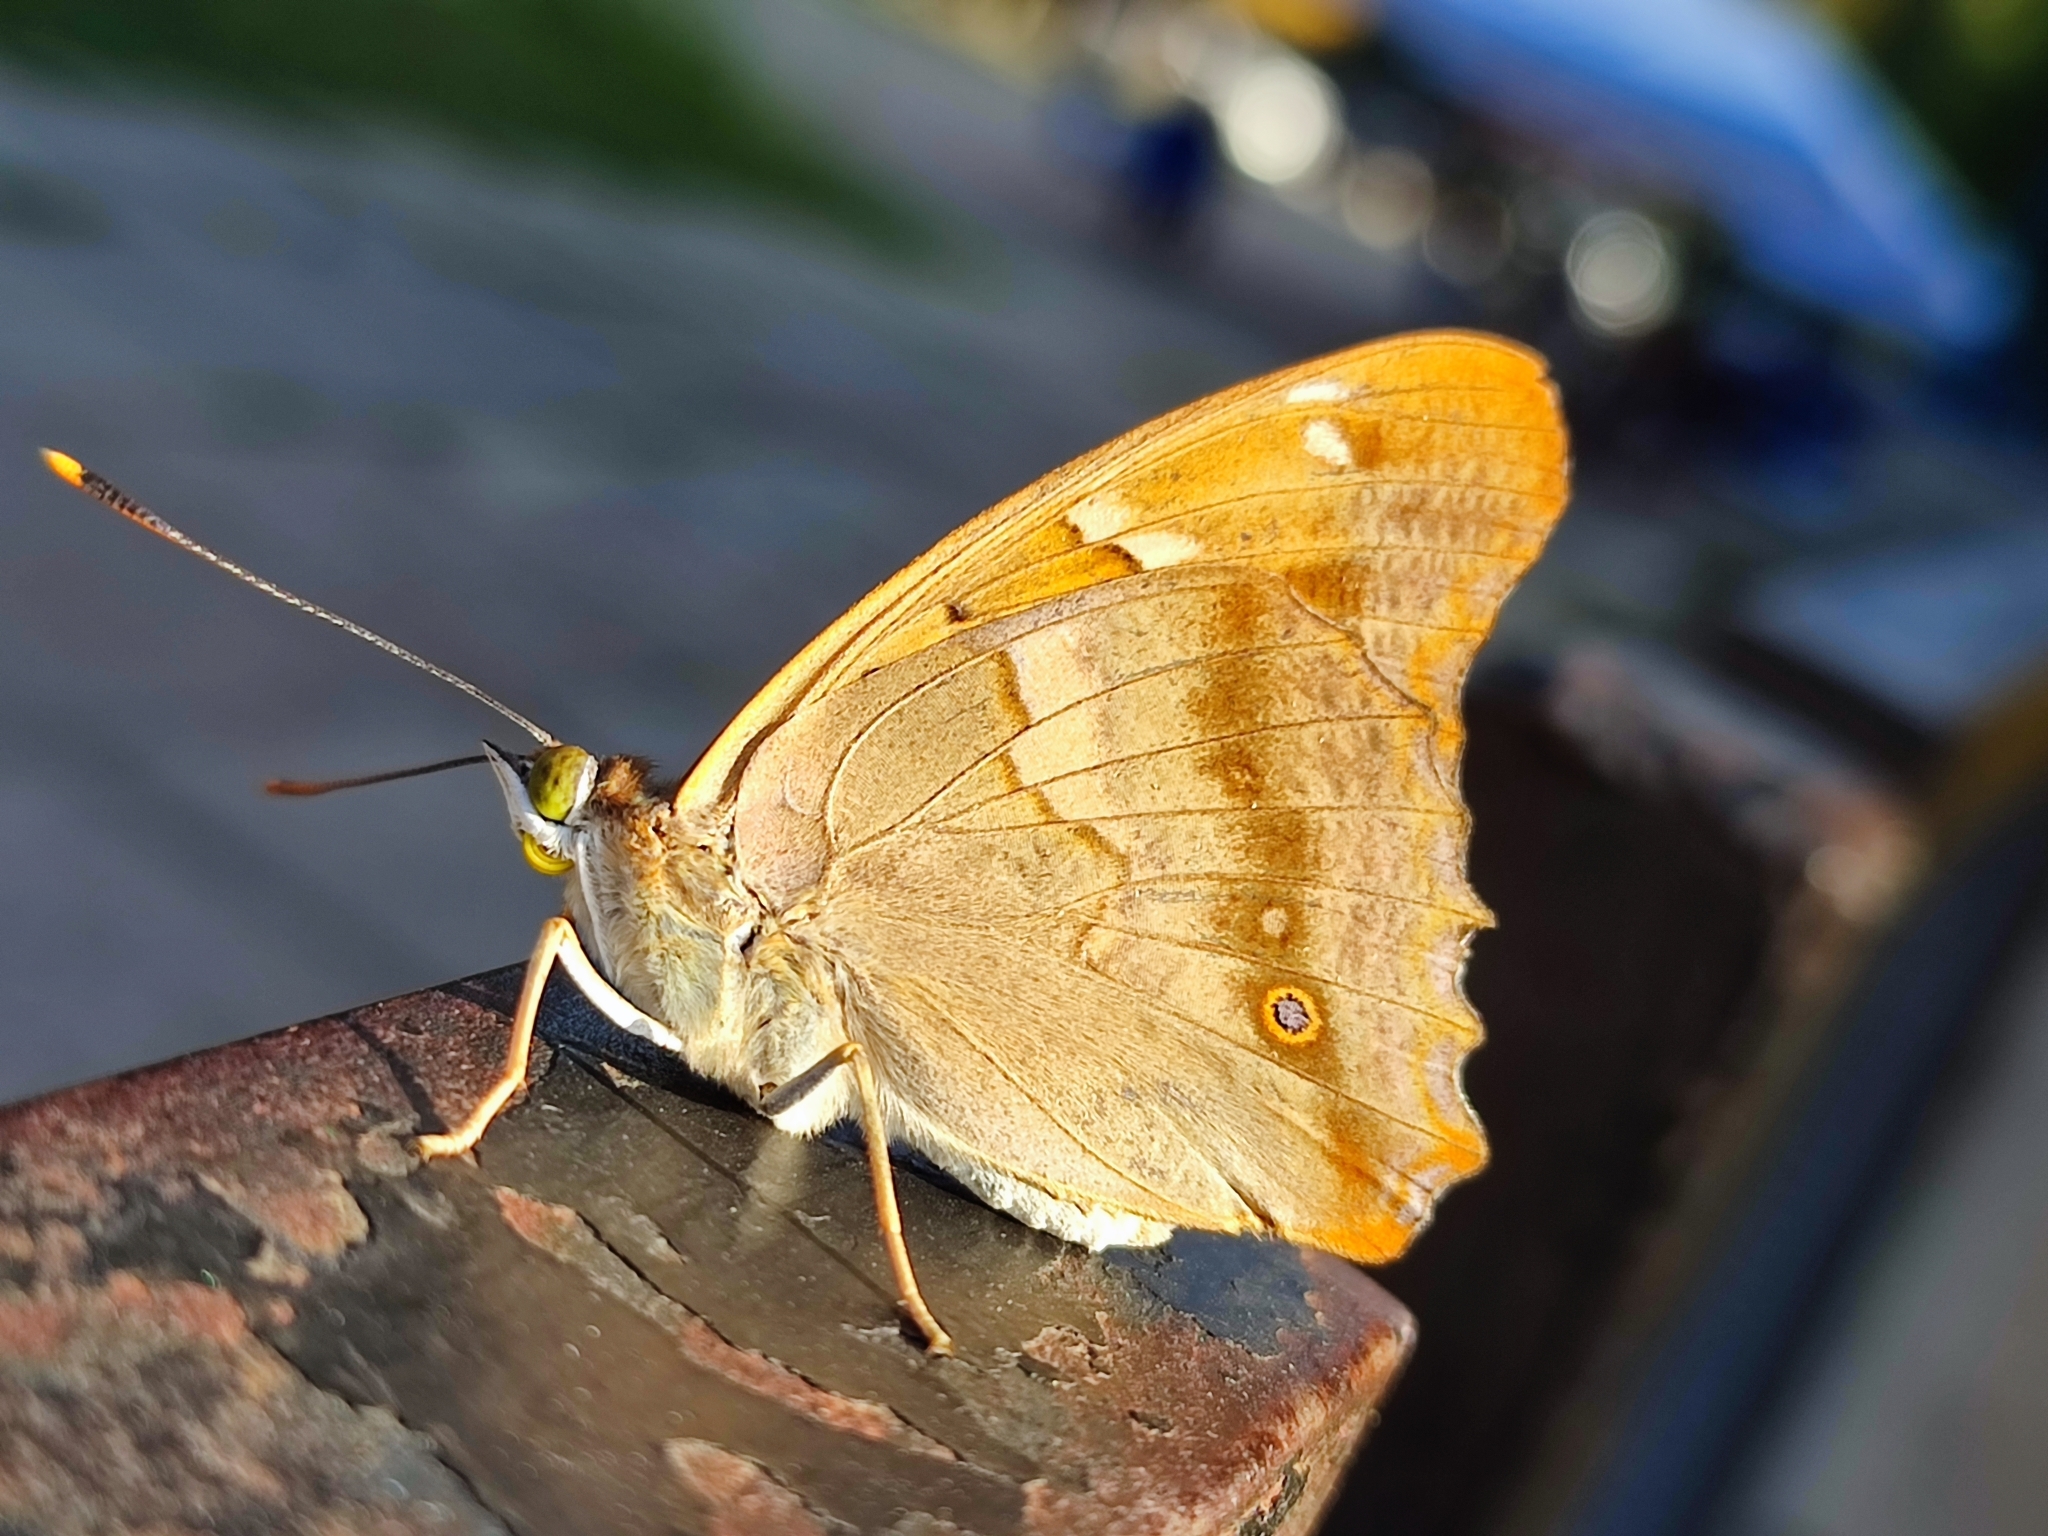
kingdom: Animalia
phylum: Arthropoda
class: Insecta
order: Lepidoptera
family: Nymphalidae
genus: Apatura
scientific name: Apatura ilia
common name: Lesser purple emperor
